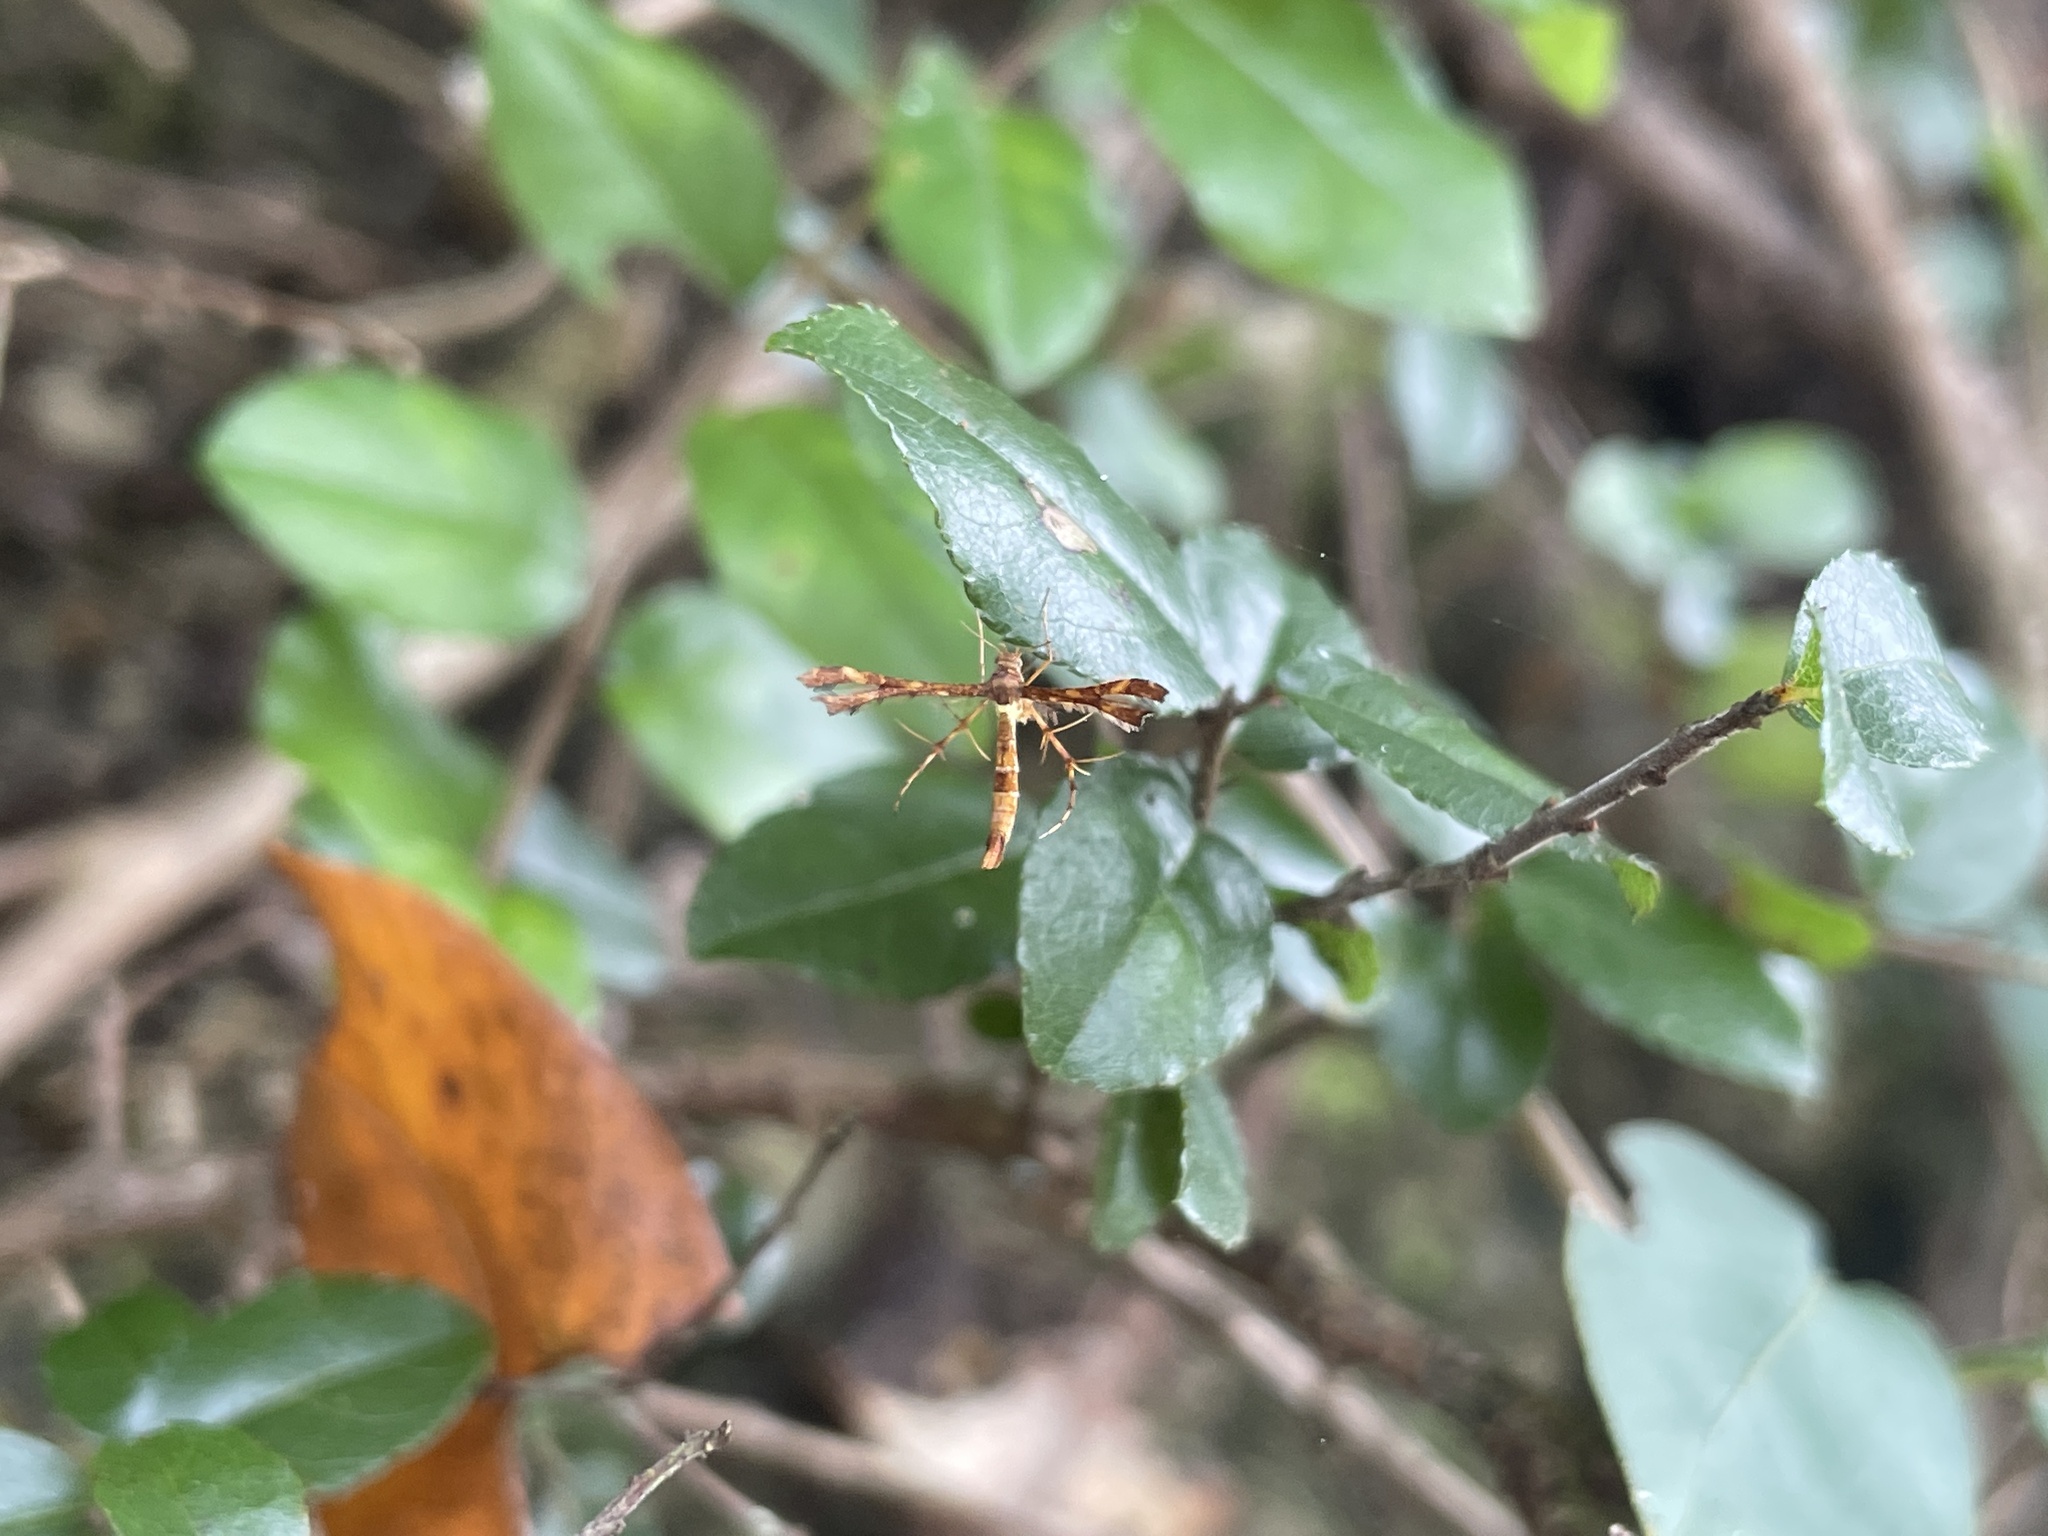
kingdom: Animalia
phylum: Arthropoda
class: Insecta
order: Lepidoptera
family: Pterophoridae
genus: Xyroptila
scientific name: Xyroptila oenophanes
